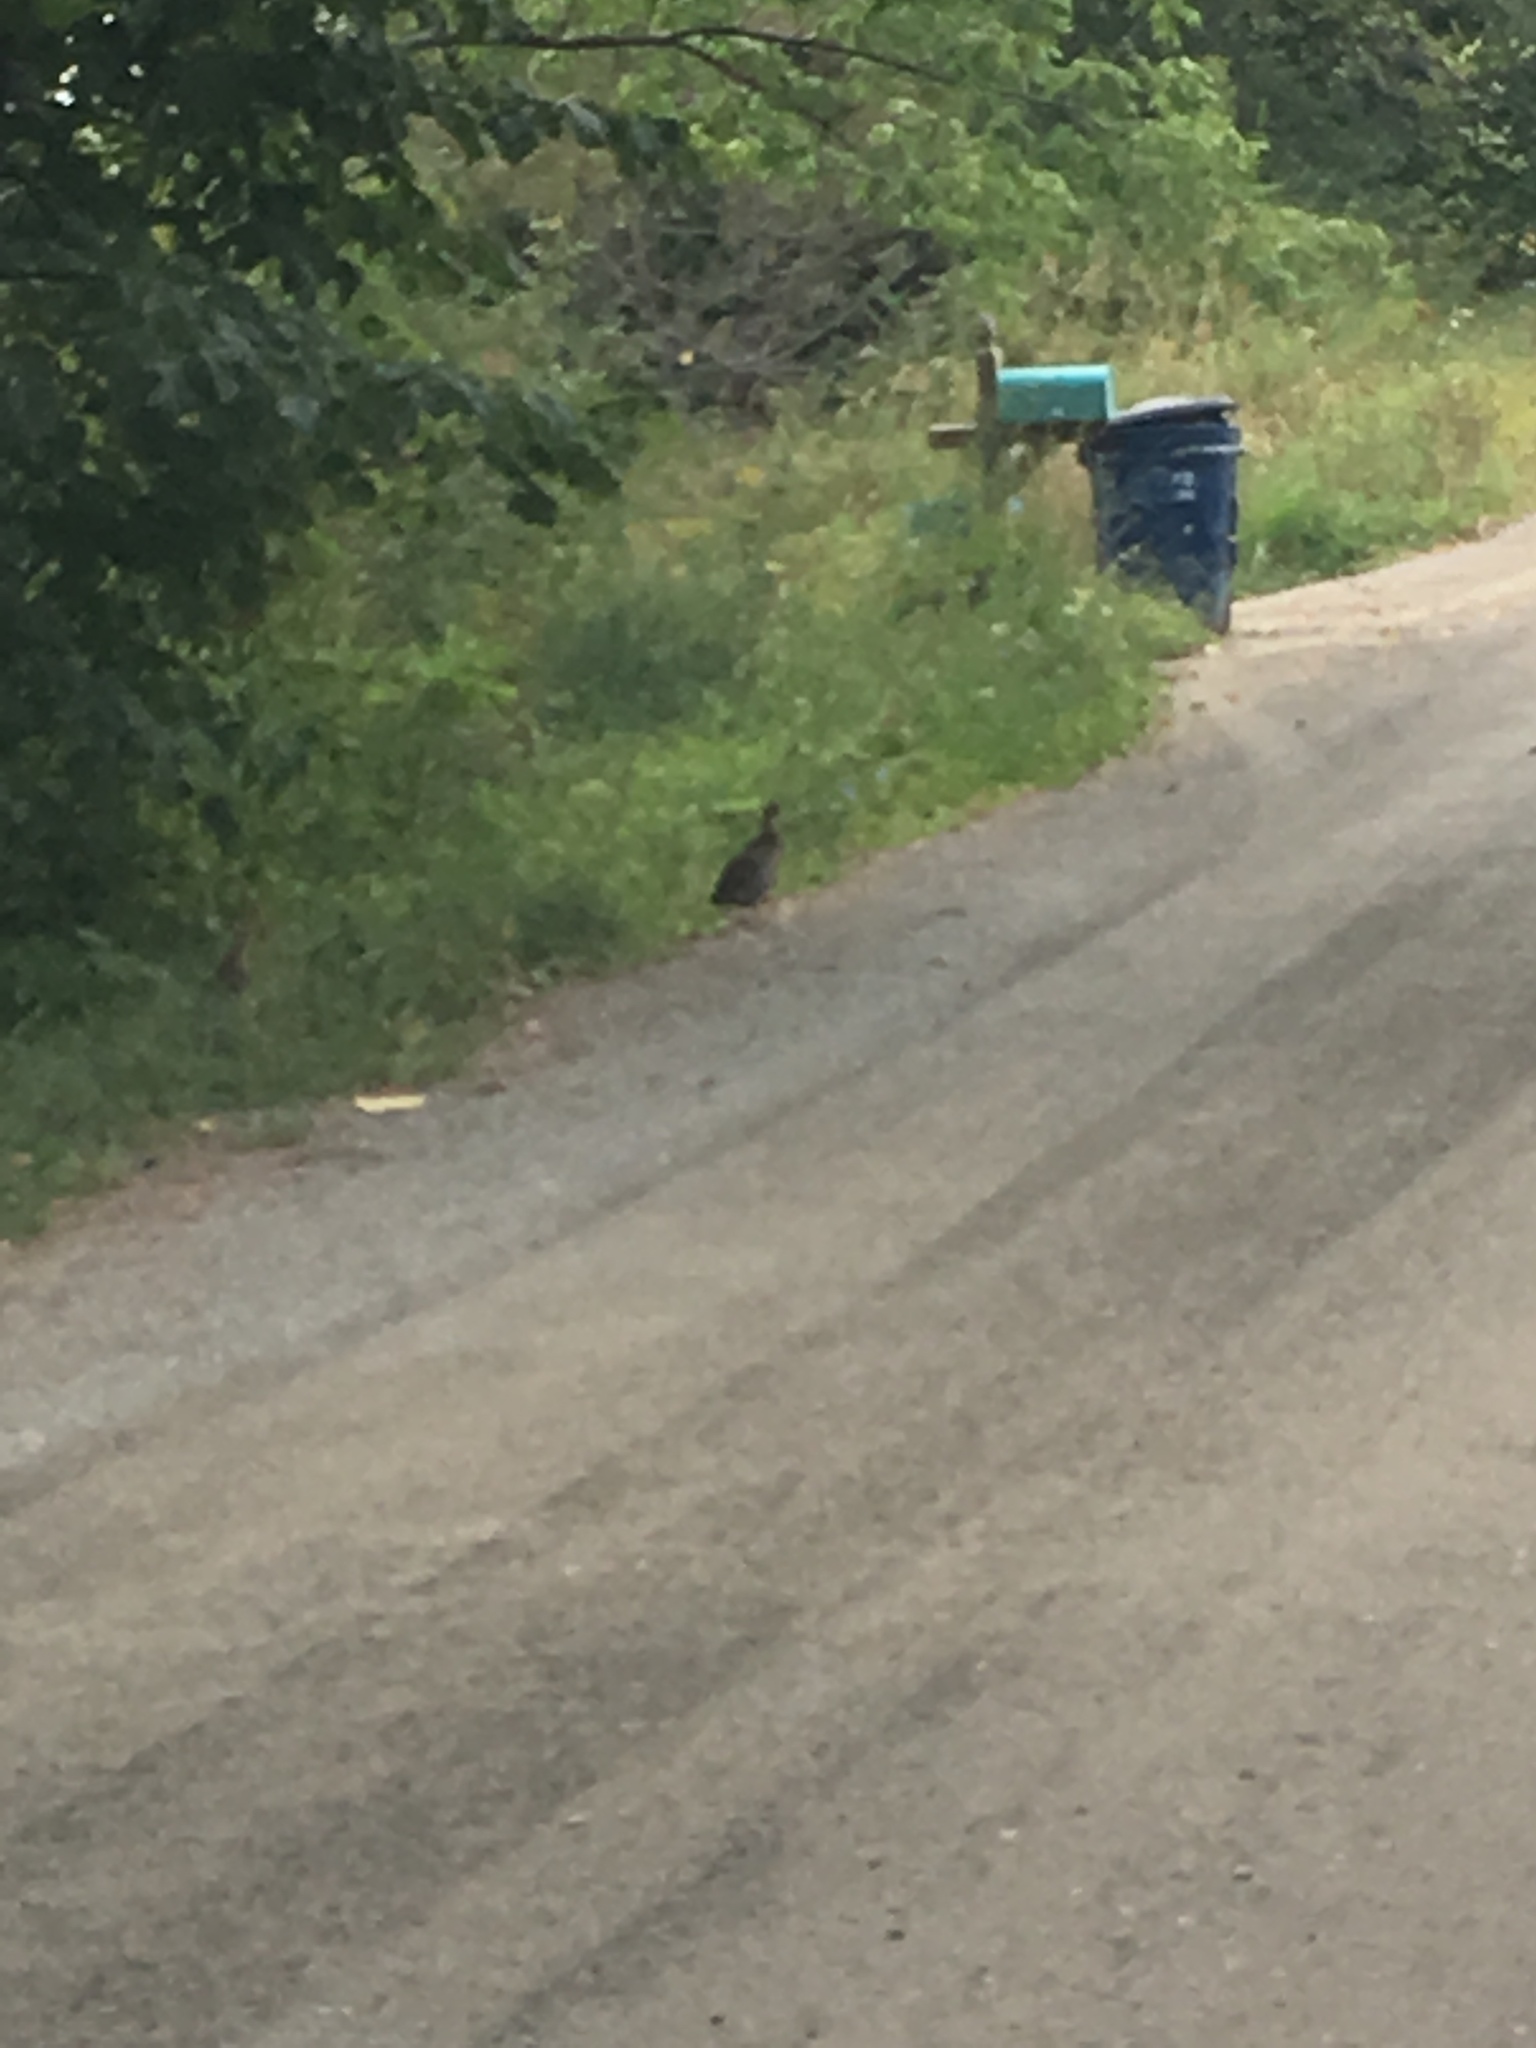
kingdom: Animalia
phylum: Chordata
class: Aves
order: Galliformes
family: Phasianidae
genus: Bonasa
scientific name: Bonasa umbellus
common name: Ruffed grouse
